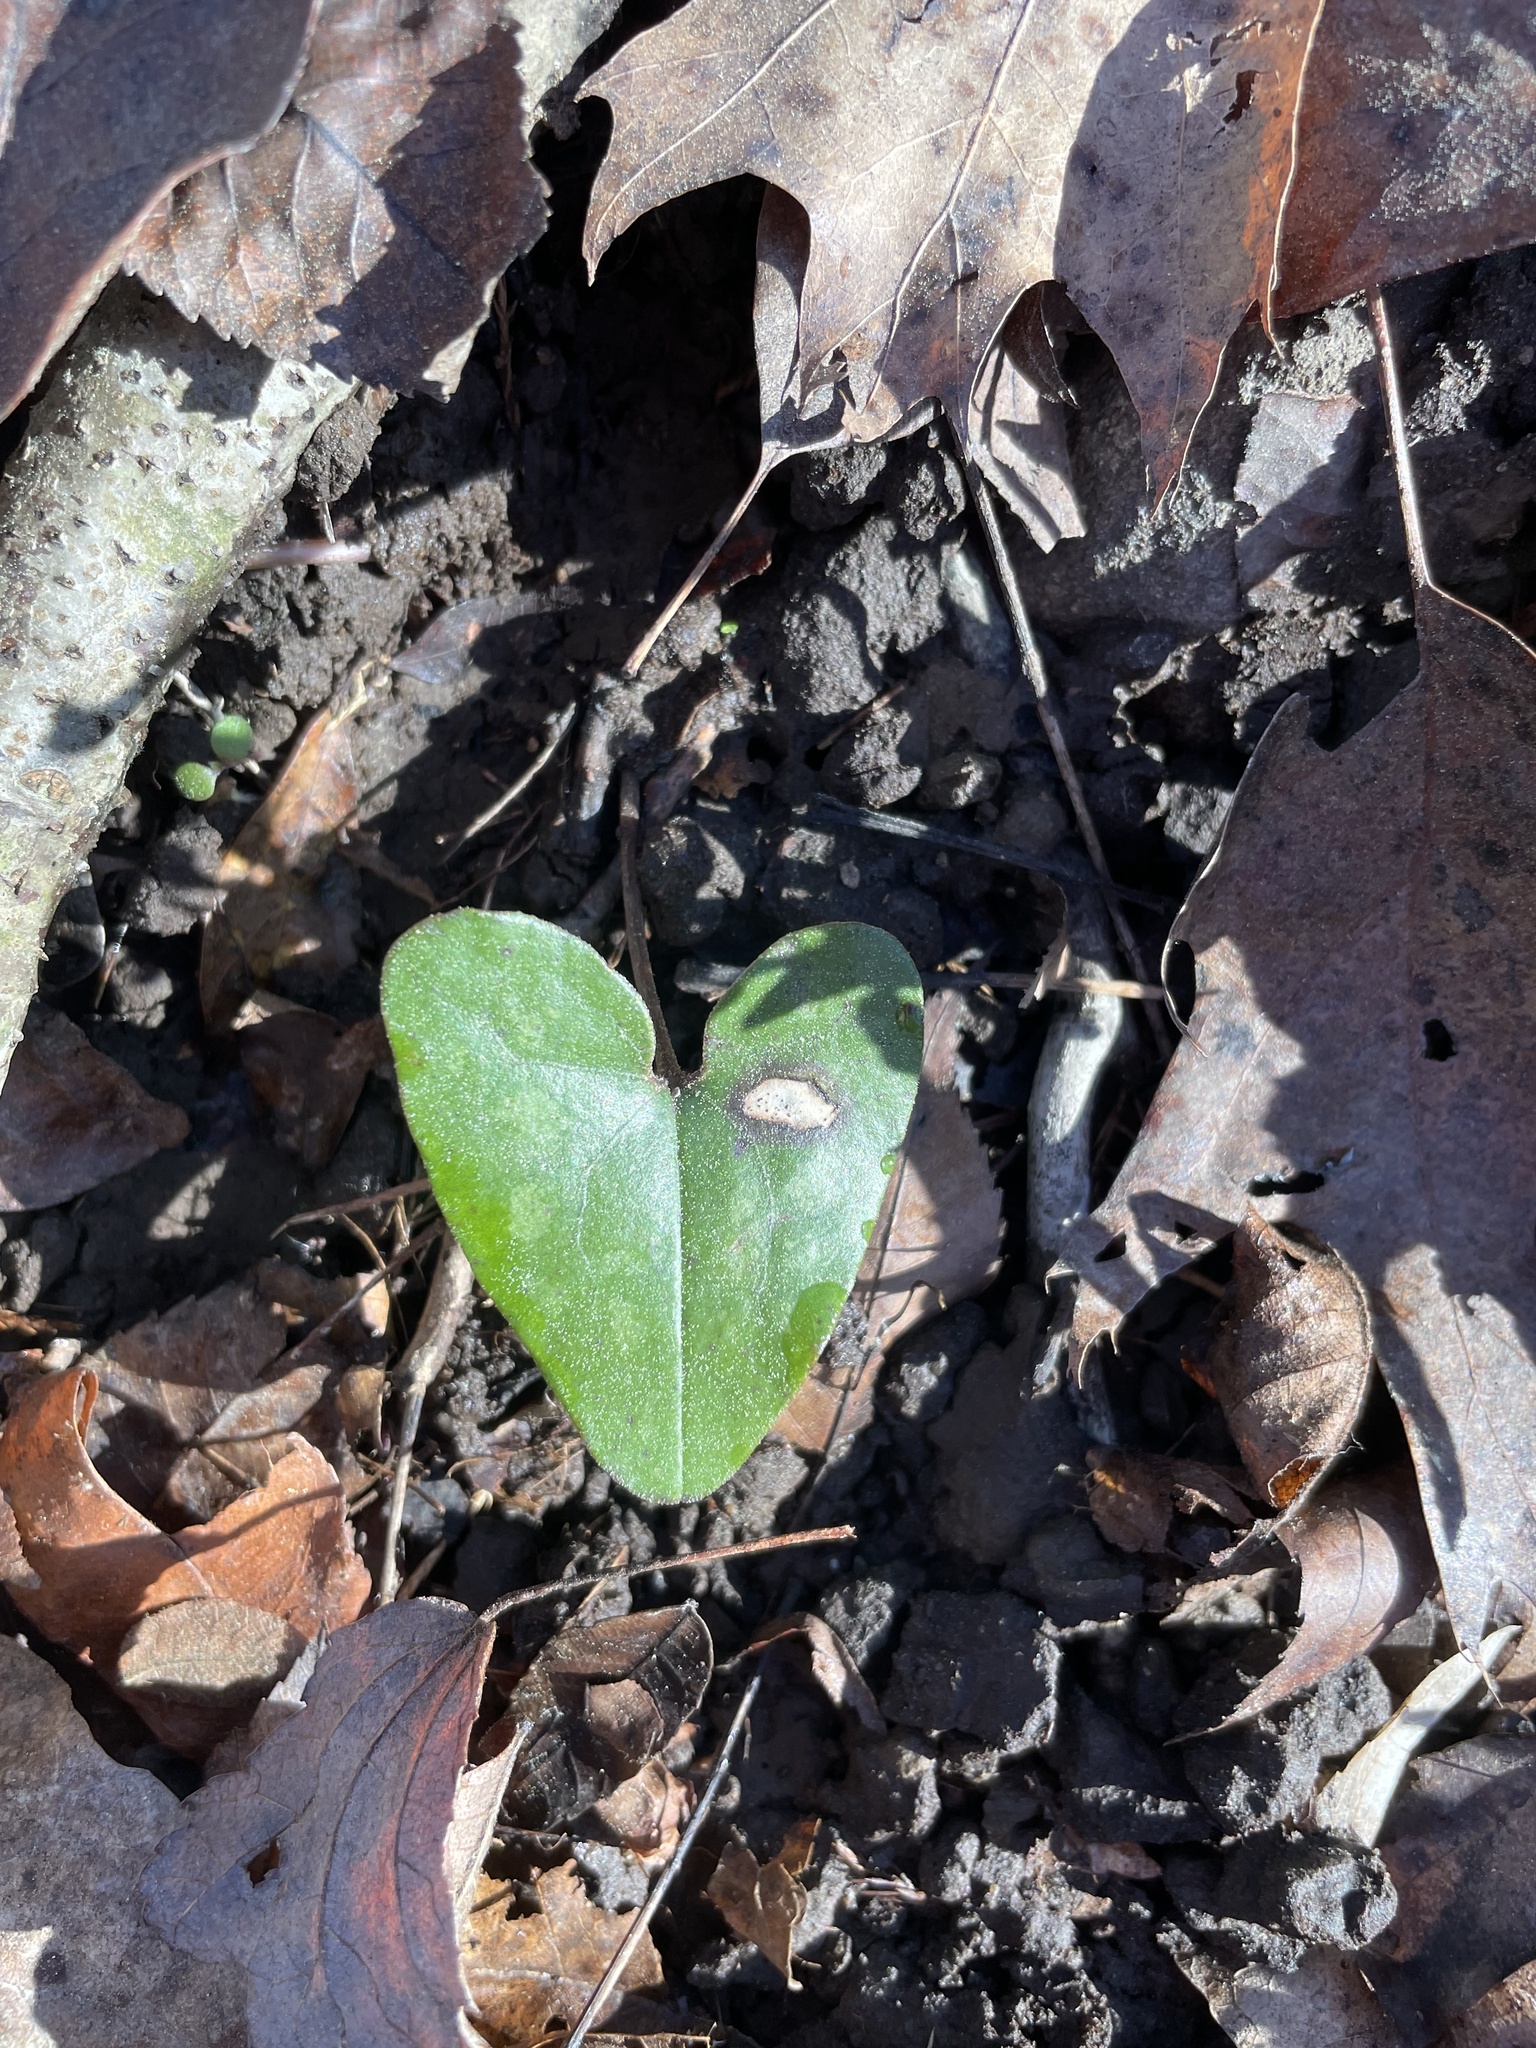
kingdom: Plantae
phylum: Tracheophyta
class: Magnoliopsida
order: Piperales
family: Aristolochiaceae
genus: Hexastylis
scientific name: Hexastylis arifolia
